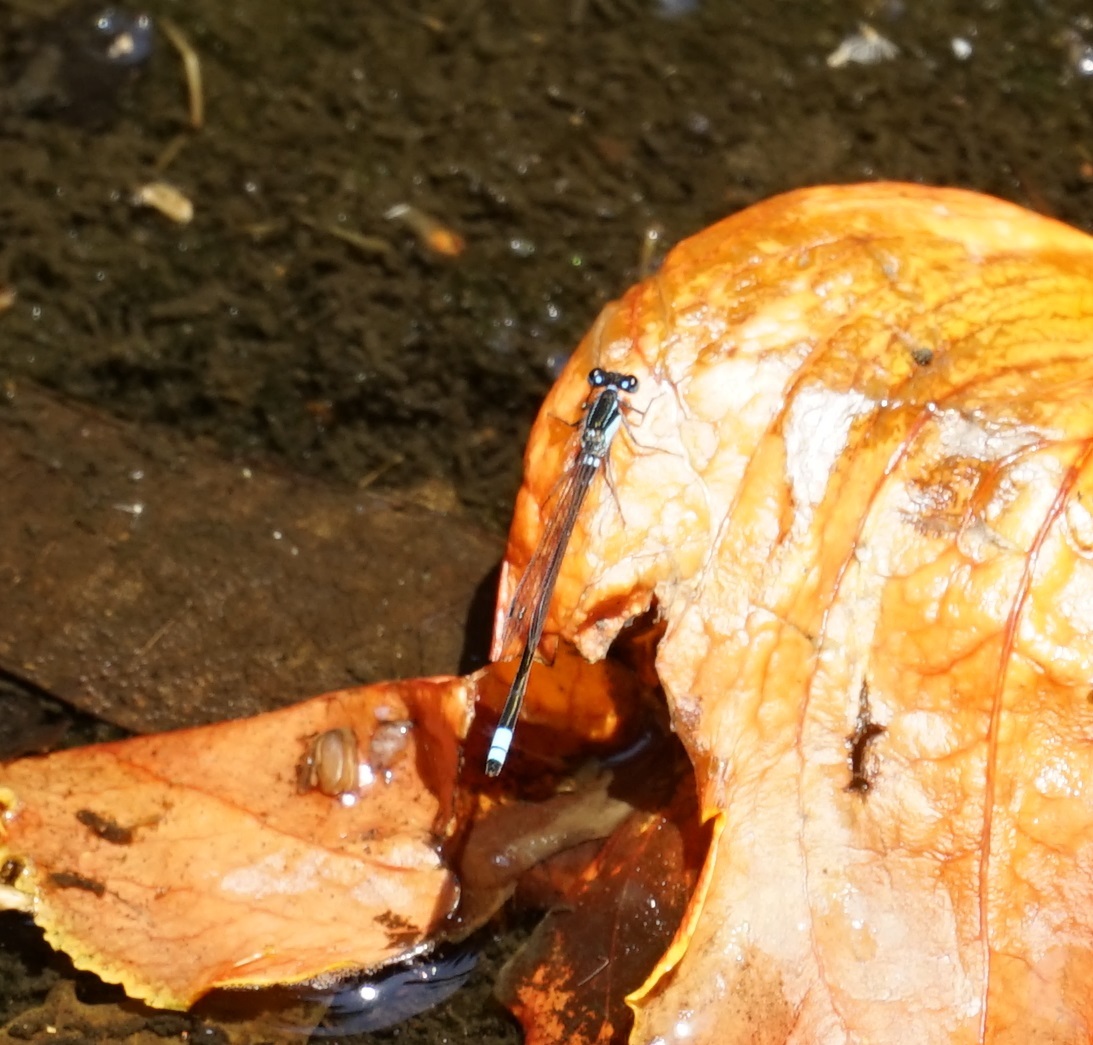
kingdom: Animalia
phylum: Arthropoda
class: Insecta
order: Odonata
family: Coenagrionidae
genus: Ischnura
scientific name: Ischnura heterosticta
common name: Common bluetail
